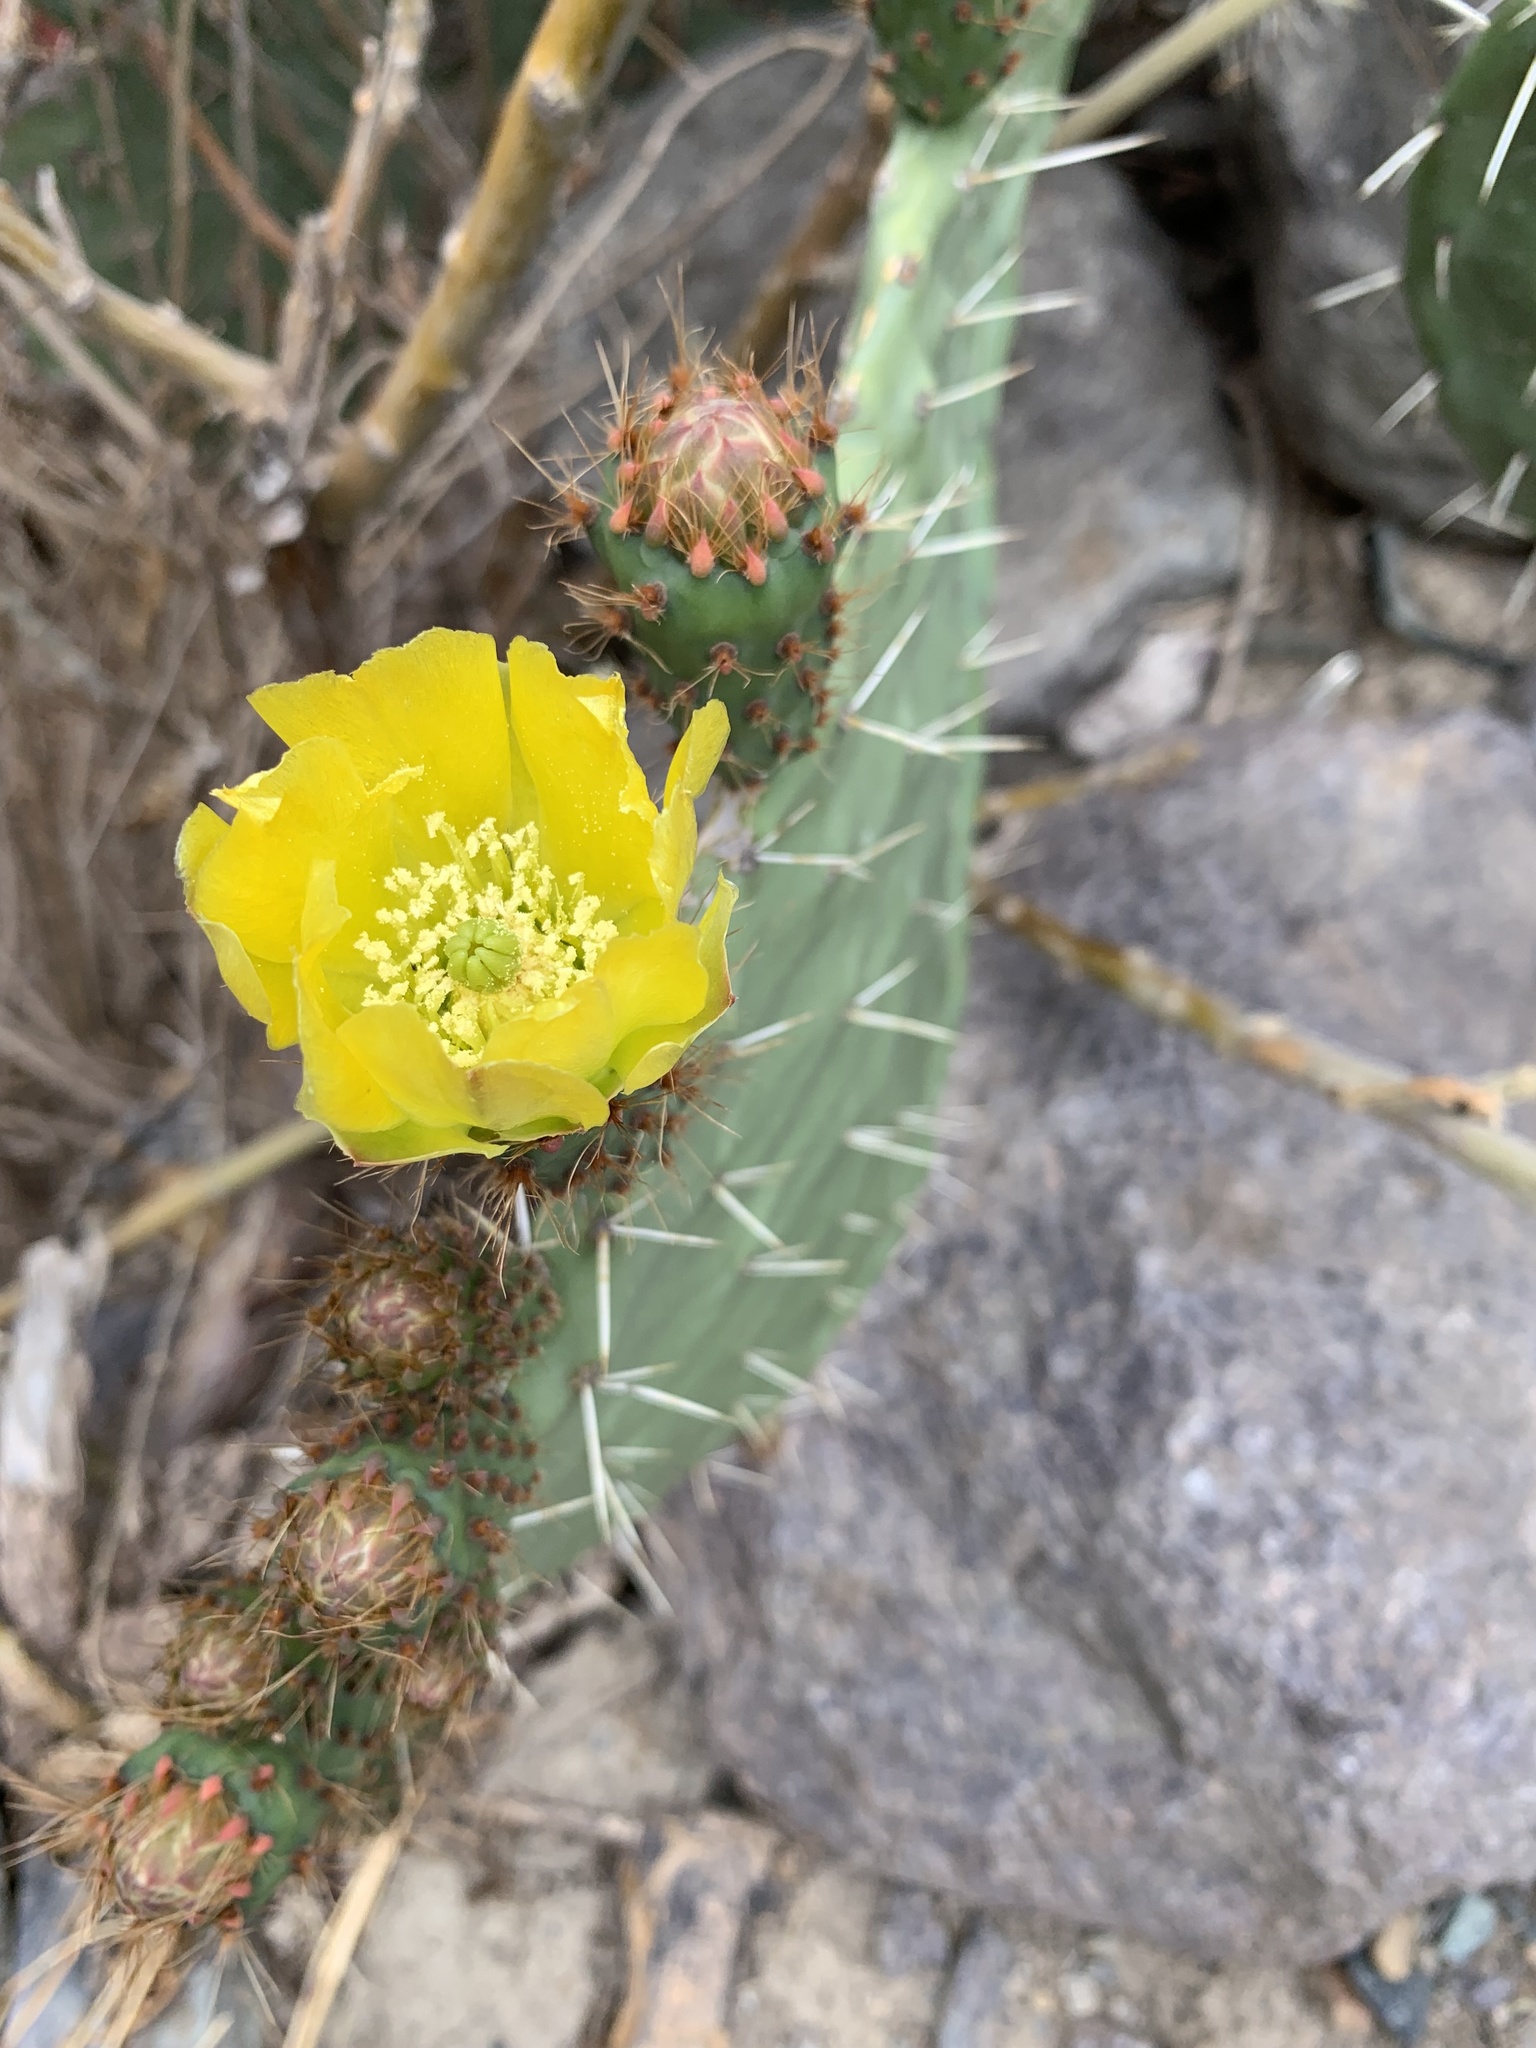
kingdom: Plantae
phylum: Tracheophyta
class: Magnoliopsida
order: Caryophyllales
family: Cactaceae
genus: Opuntia
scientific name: Opuntia ficus-indica
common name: Barbary fig
